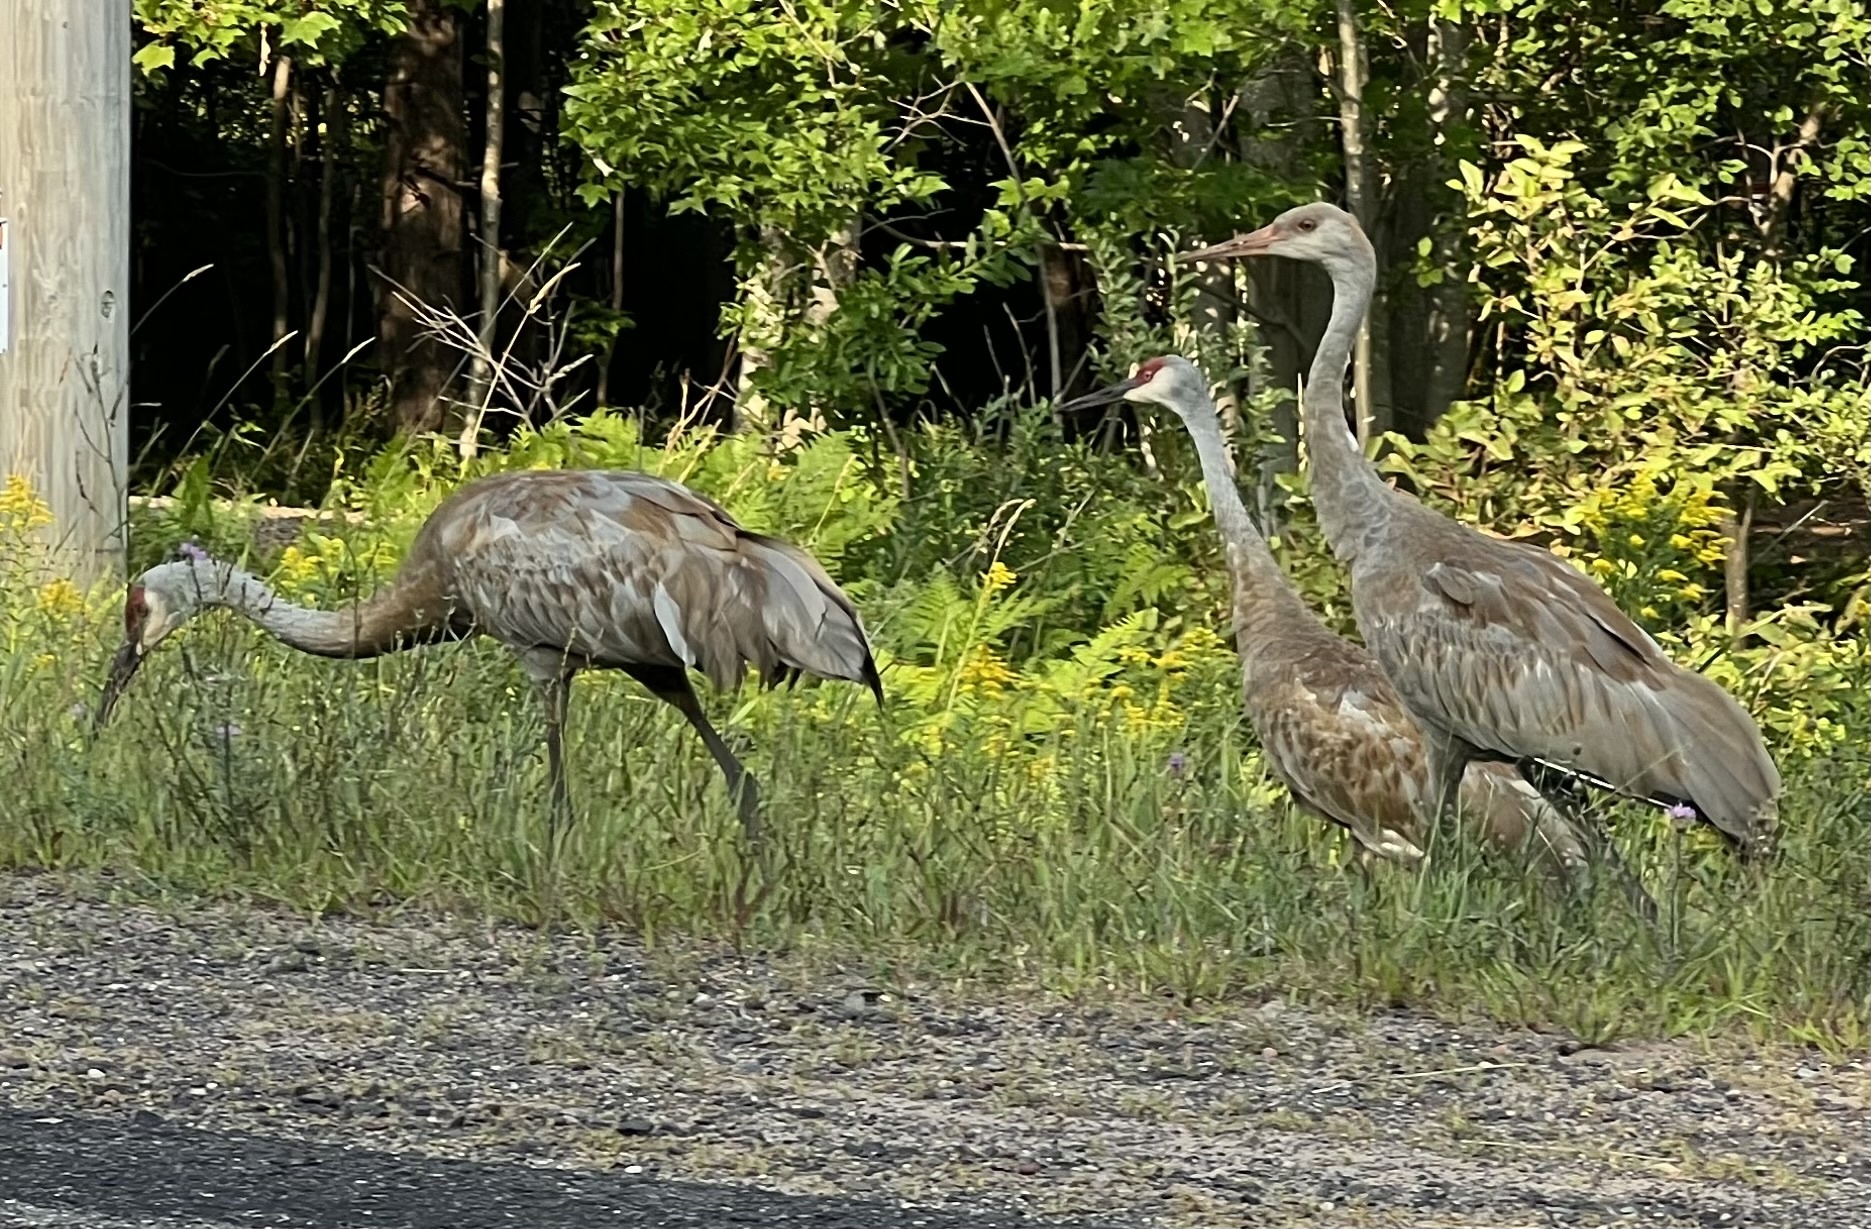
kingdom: Animalia
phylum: Chordata
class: Aves
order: Gruiformes
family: Gruidae
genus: Grus
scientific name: Grus canadensis
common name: Sandhill crane
